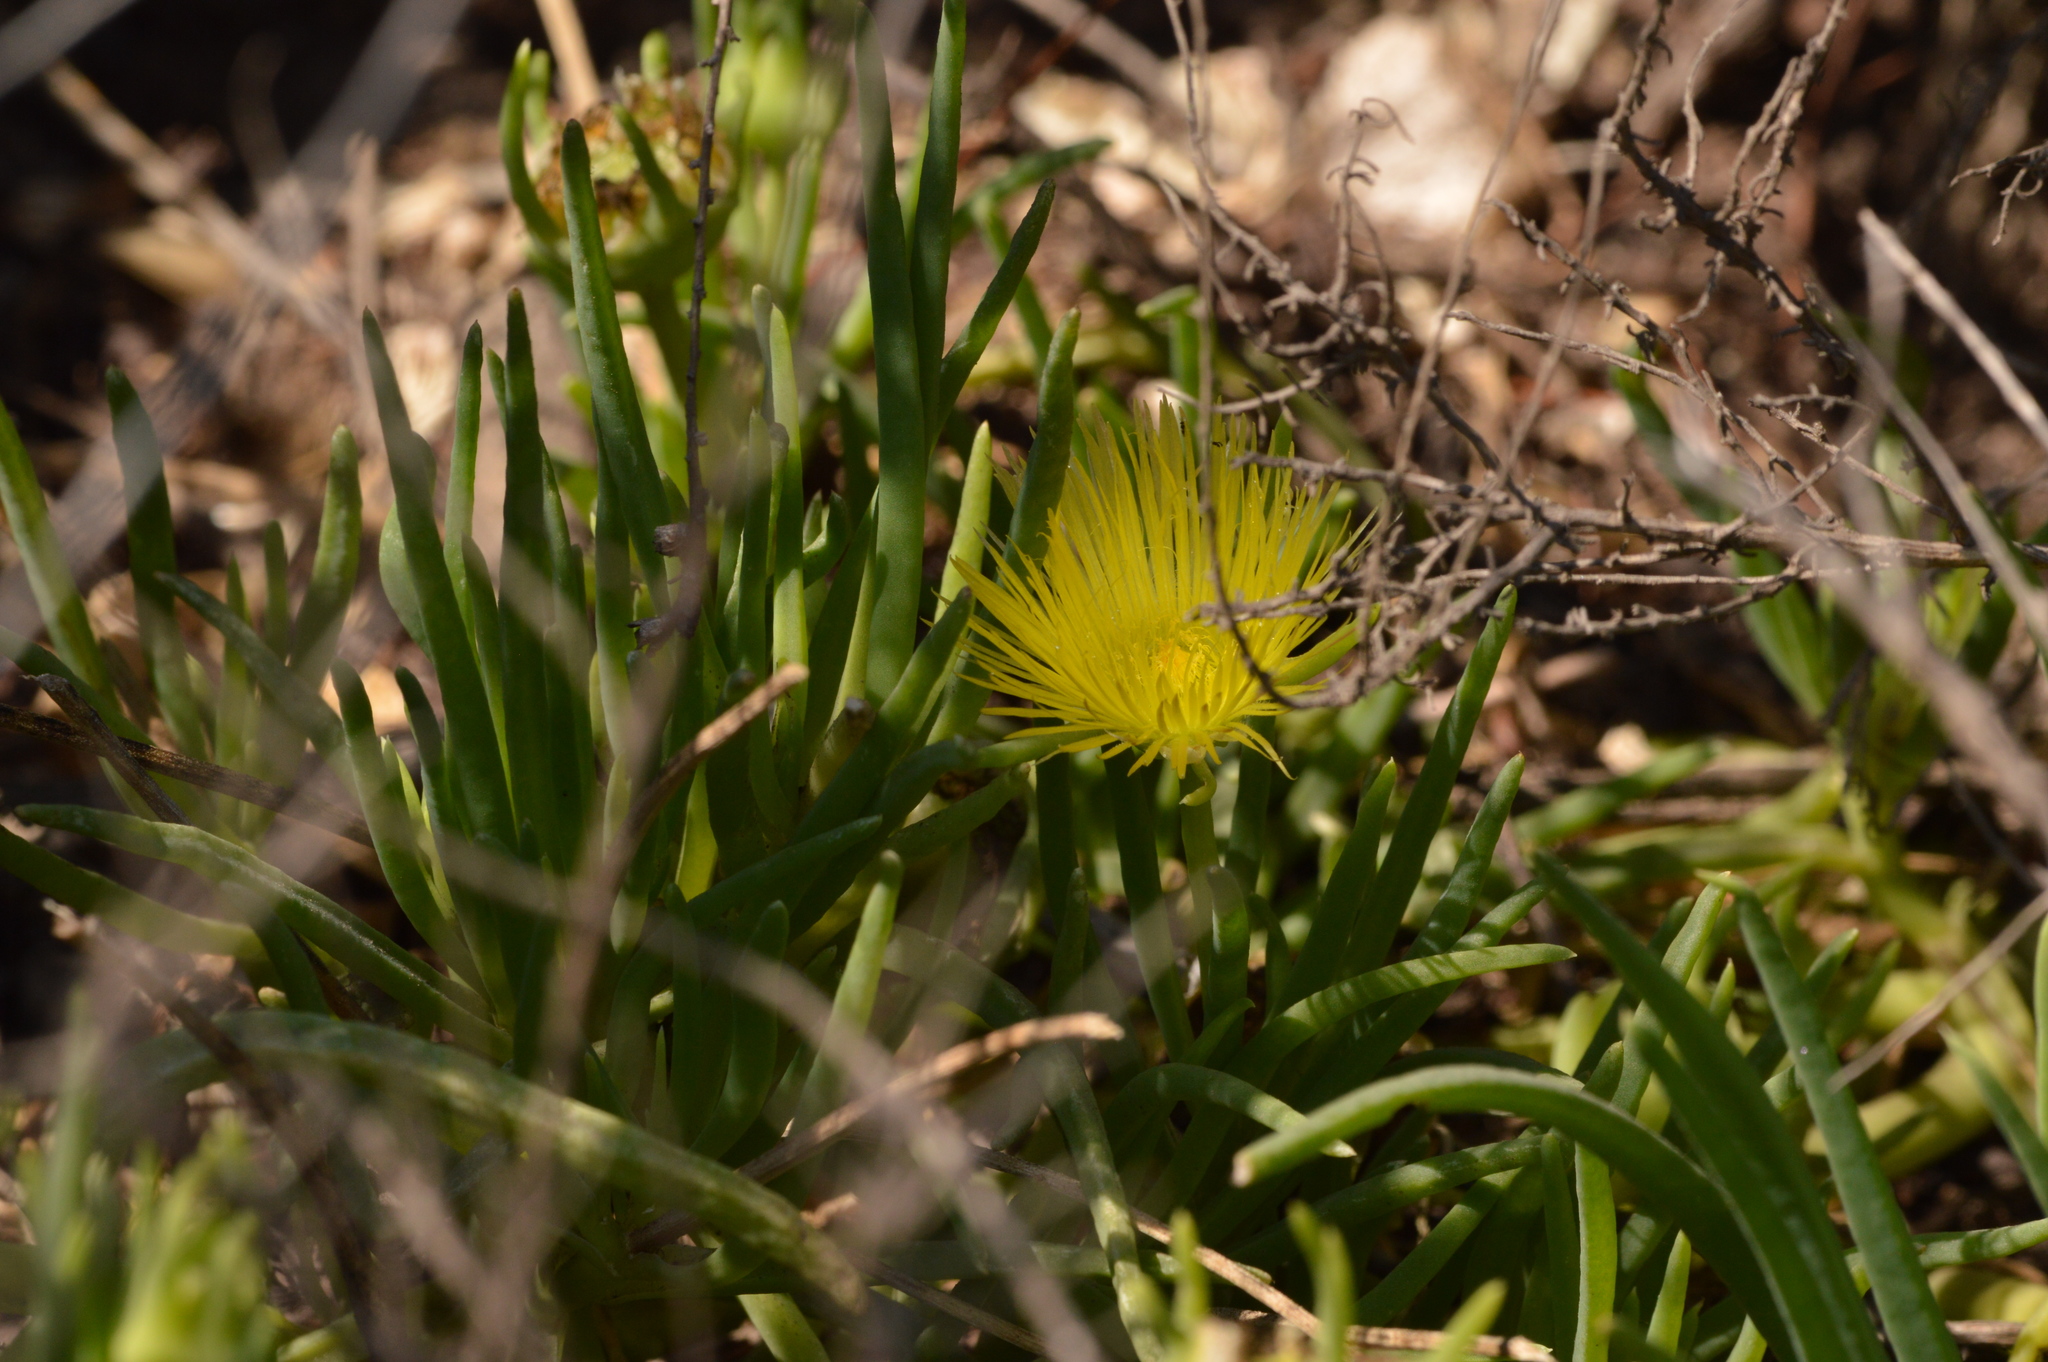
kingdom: Plantae
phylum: Tracheophyta
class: Magnoliopsida
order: Caryophyllales
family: Aizoaceae
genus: Conicosia
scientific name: Conicosia pugioniformis
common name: Narrow-leaved iceplant
